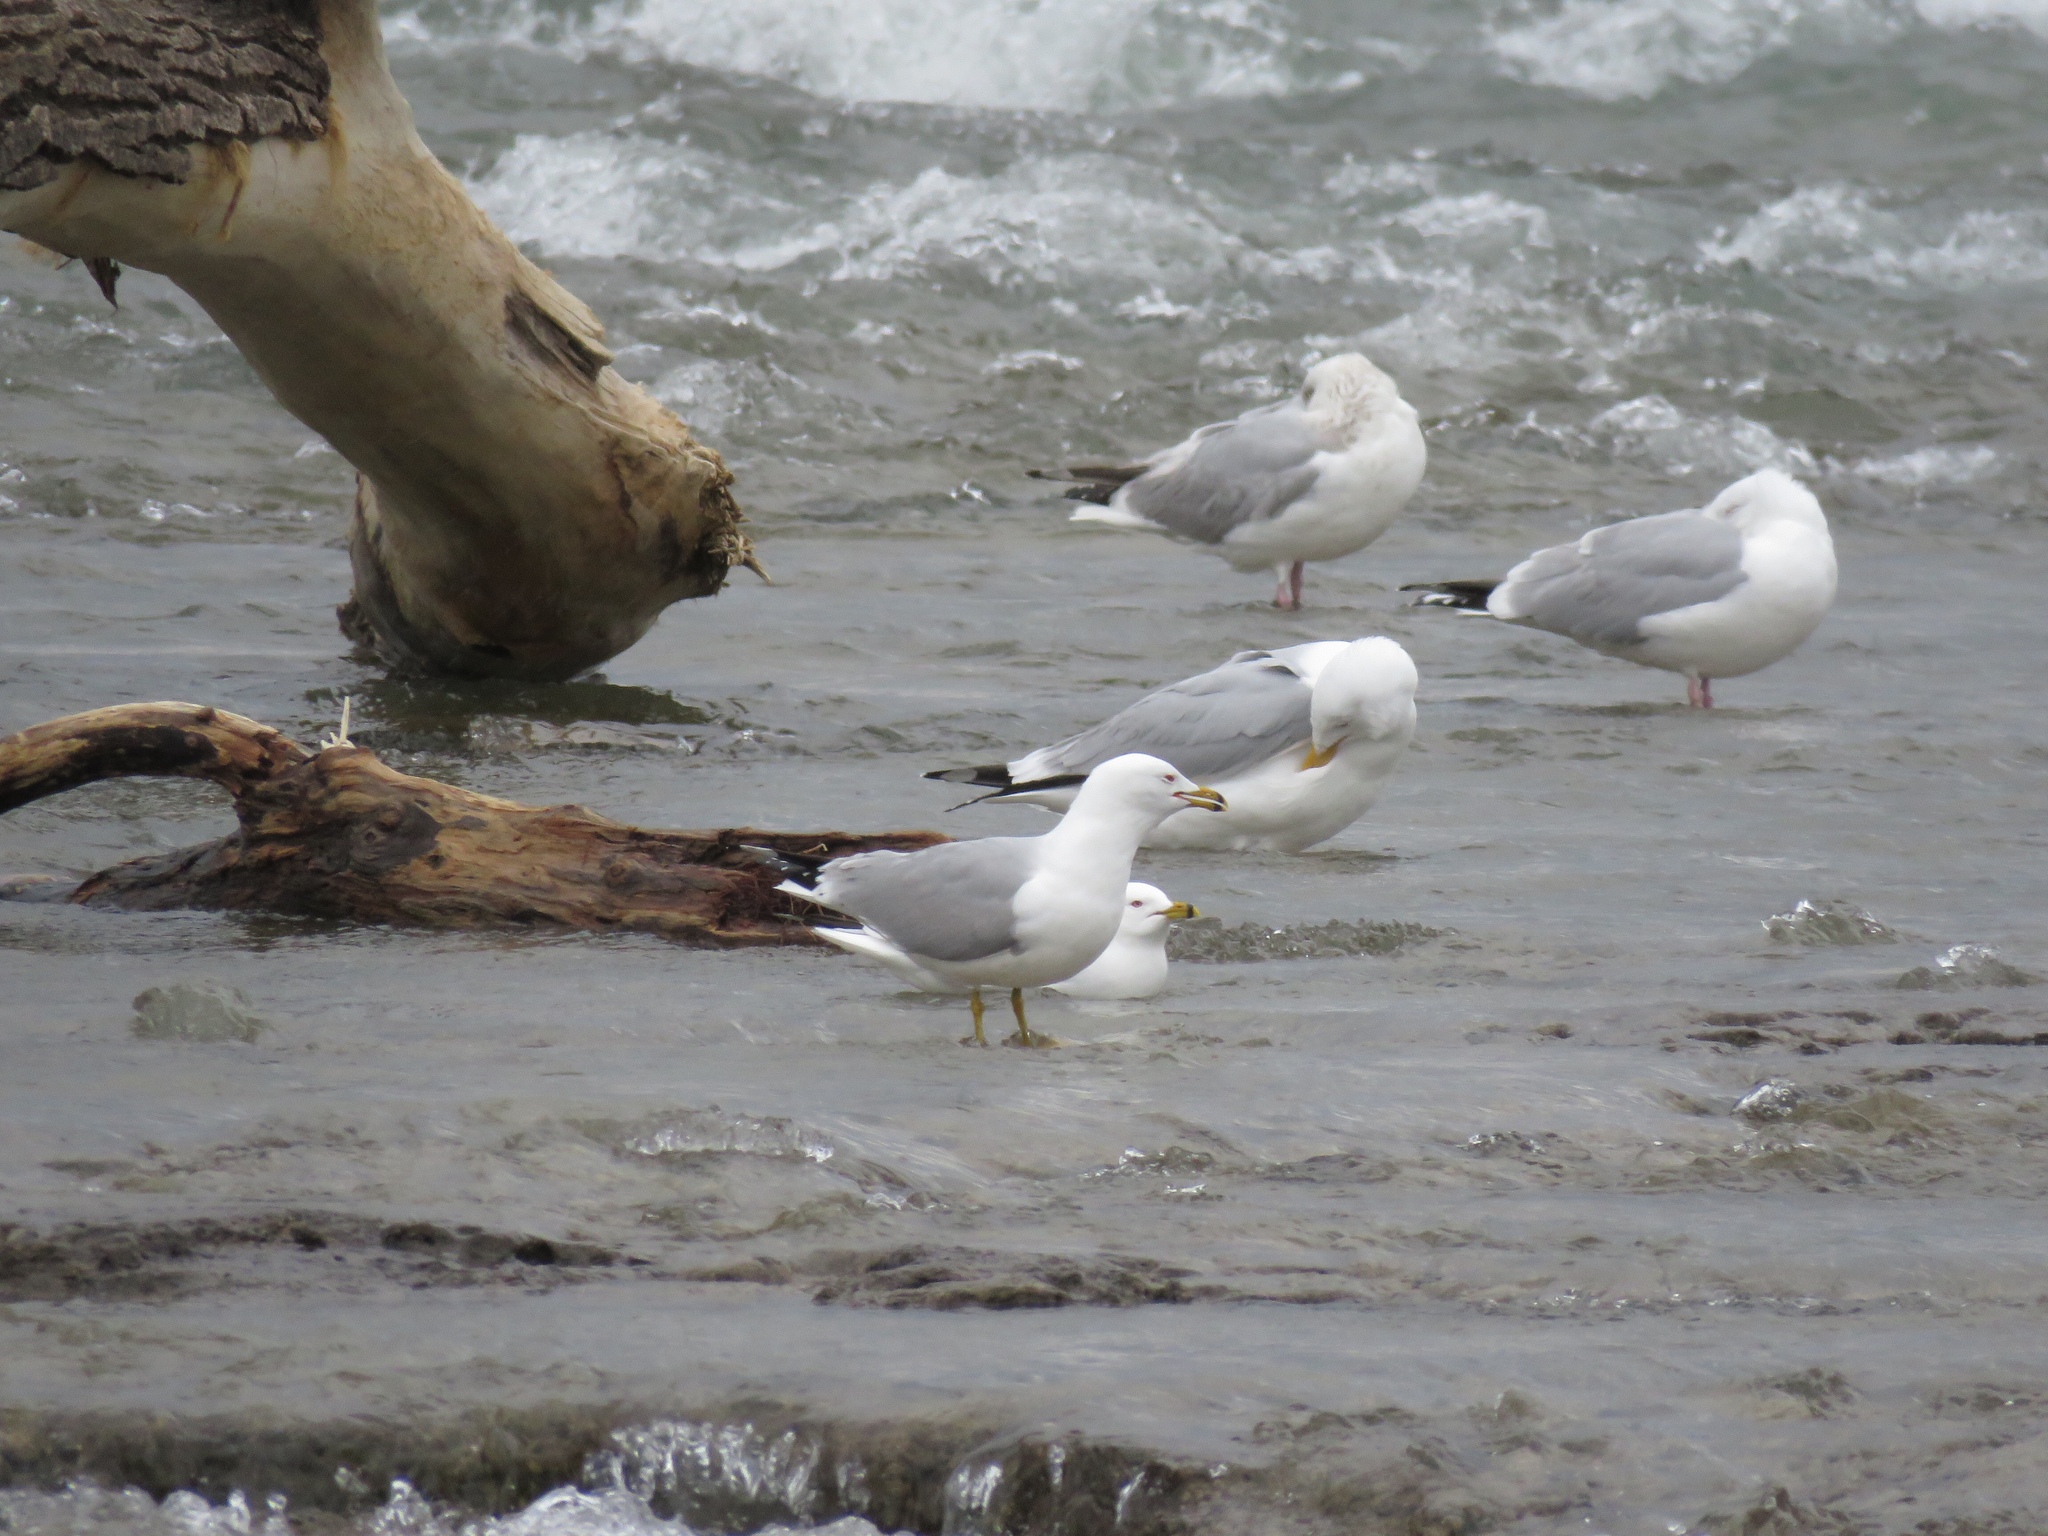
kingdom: Animalia
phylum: Chordata
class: Aves
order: Charadriiformes
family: Laridae
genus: Larus
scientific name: Larus delawarensis
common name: Ring-billed gull
